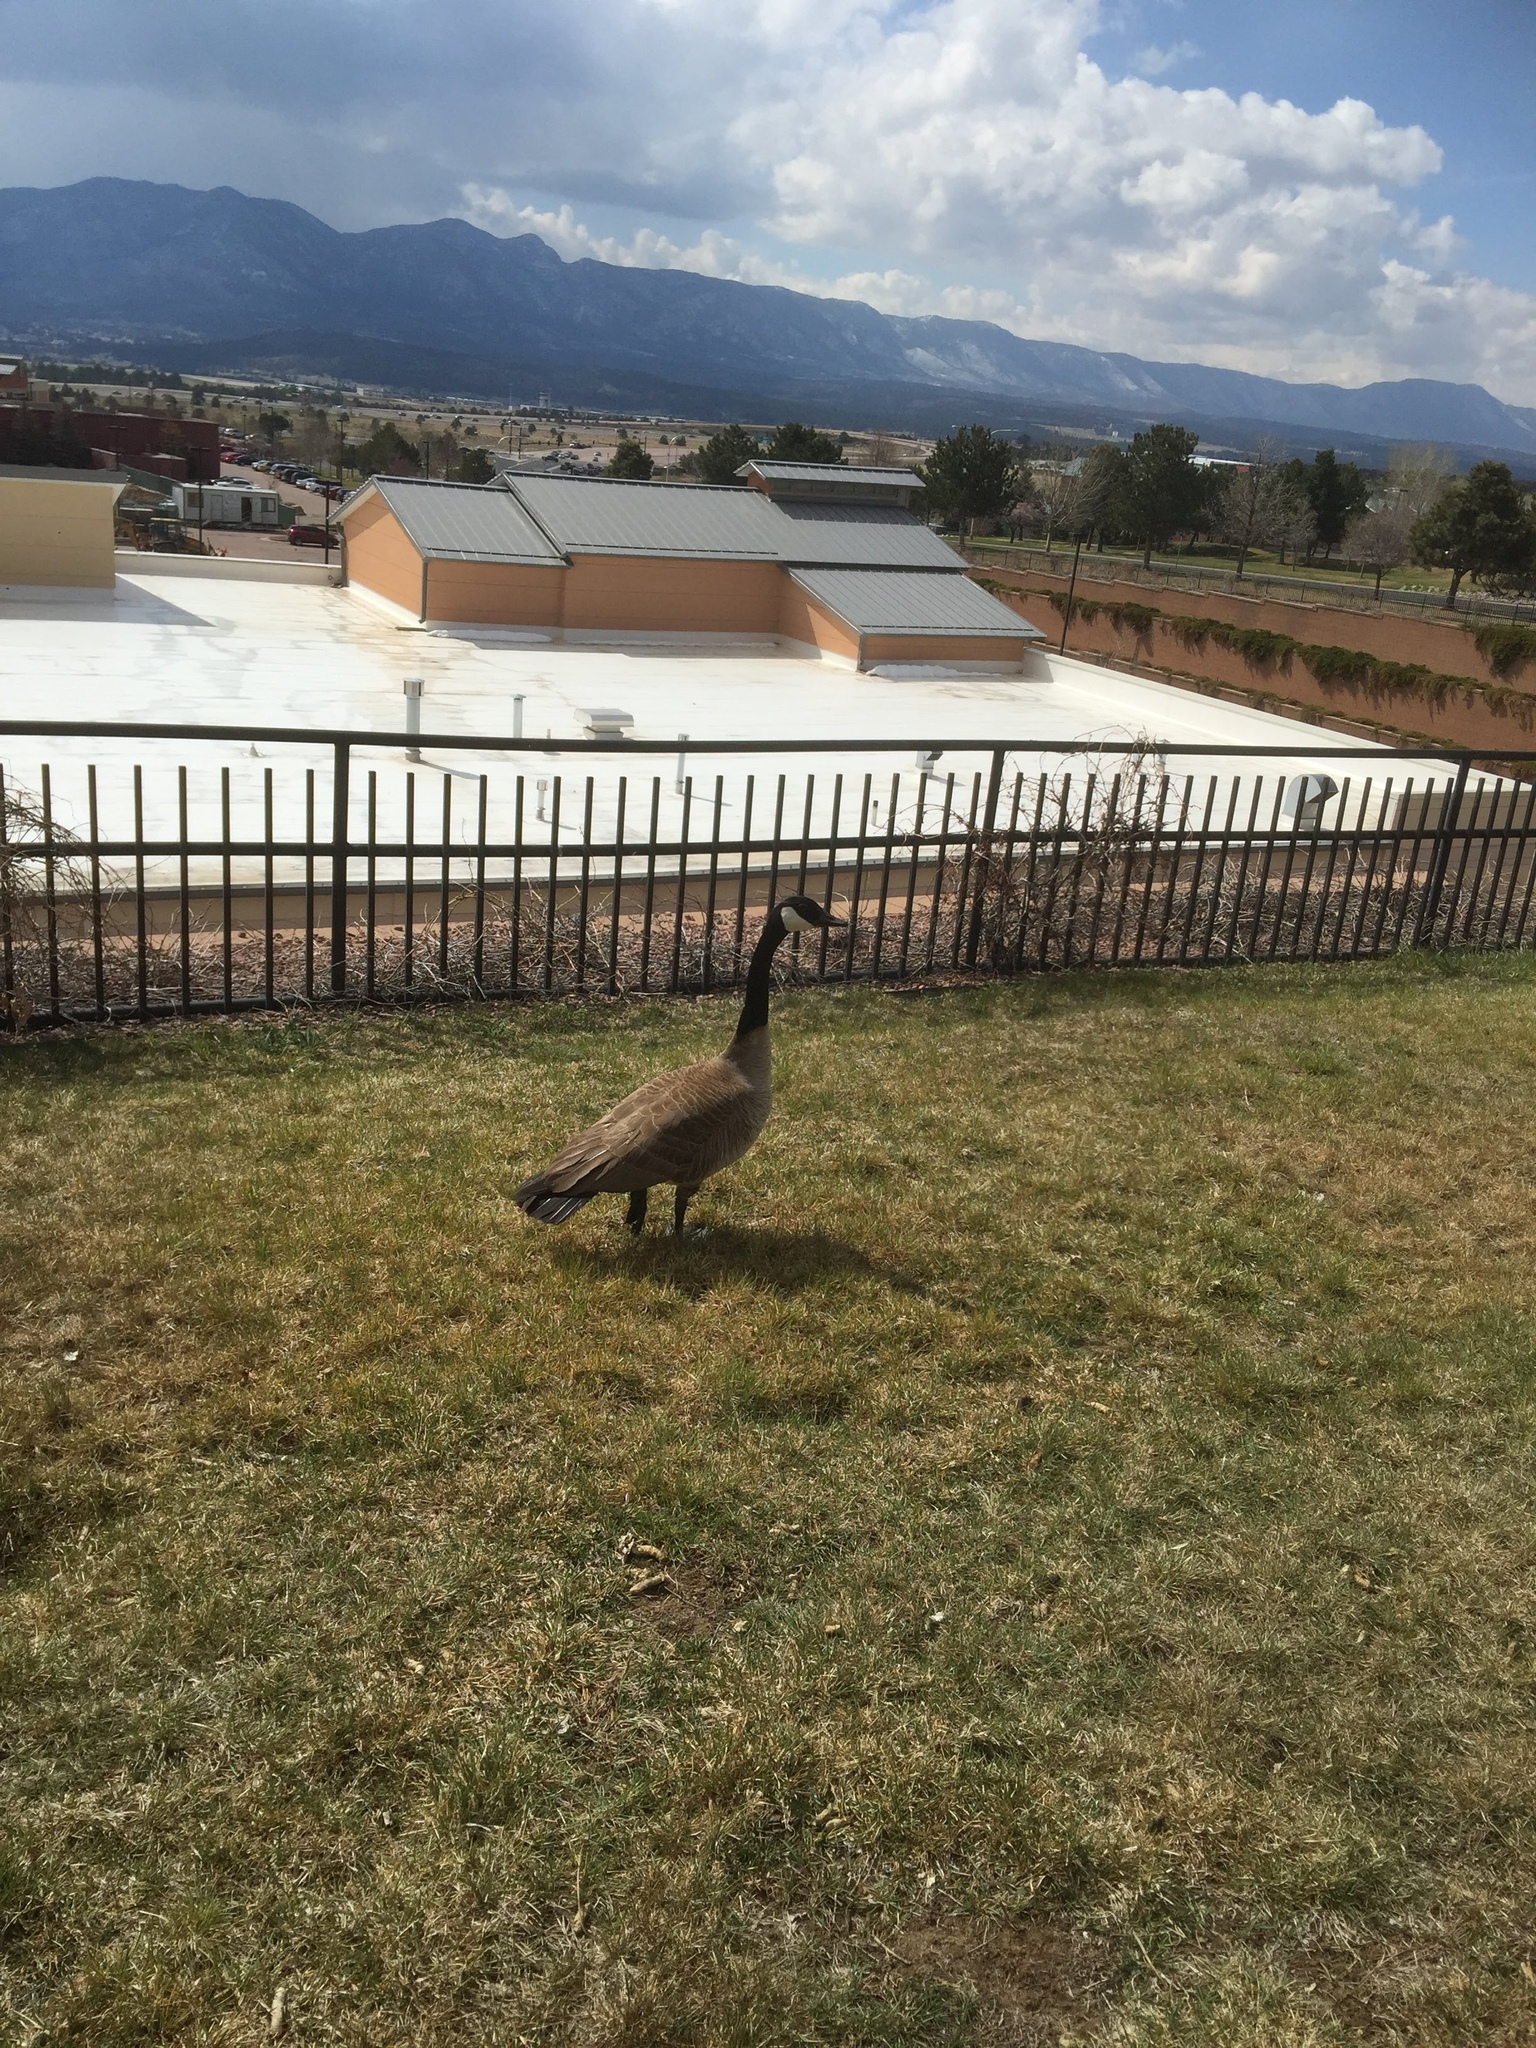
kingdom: Animalia
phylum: Chordata
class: Aves
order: Anseriformes
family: Anatidae
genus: Branta
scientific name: Branta canadensis
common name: Canada goose
